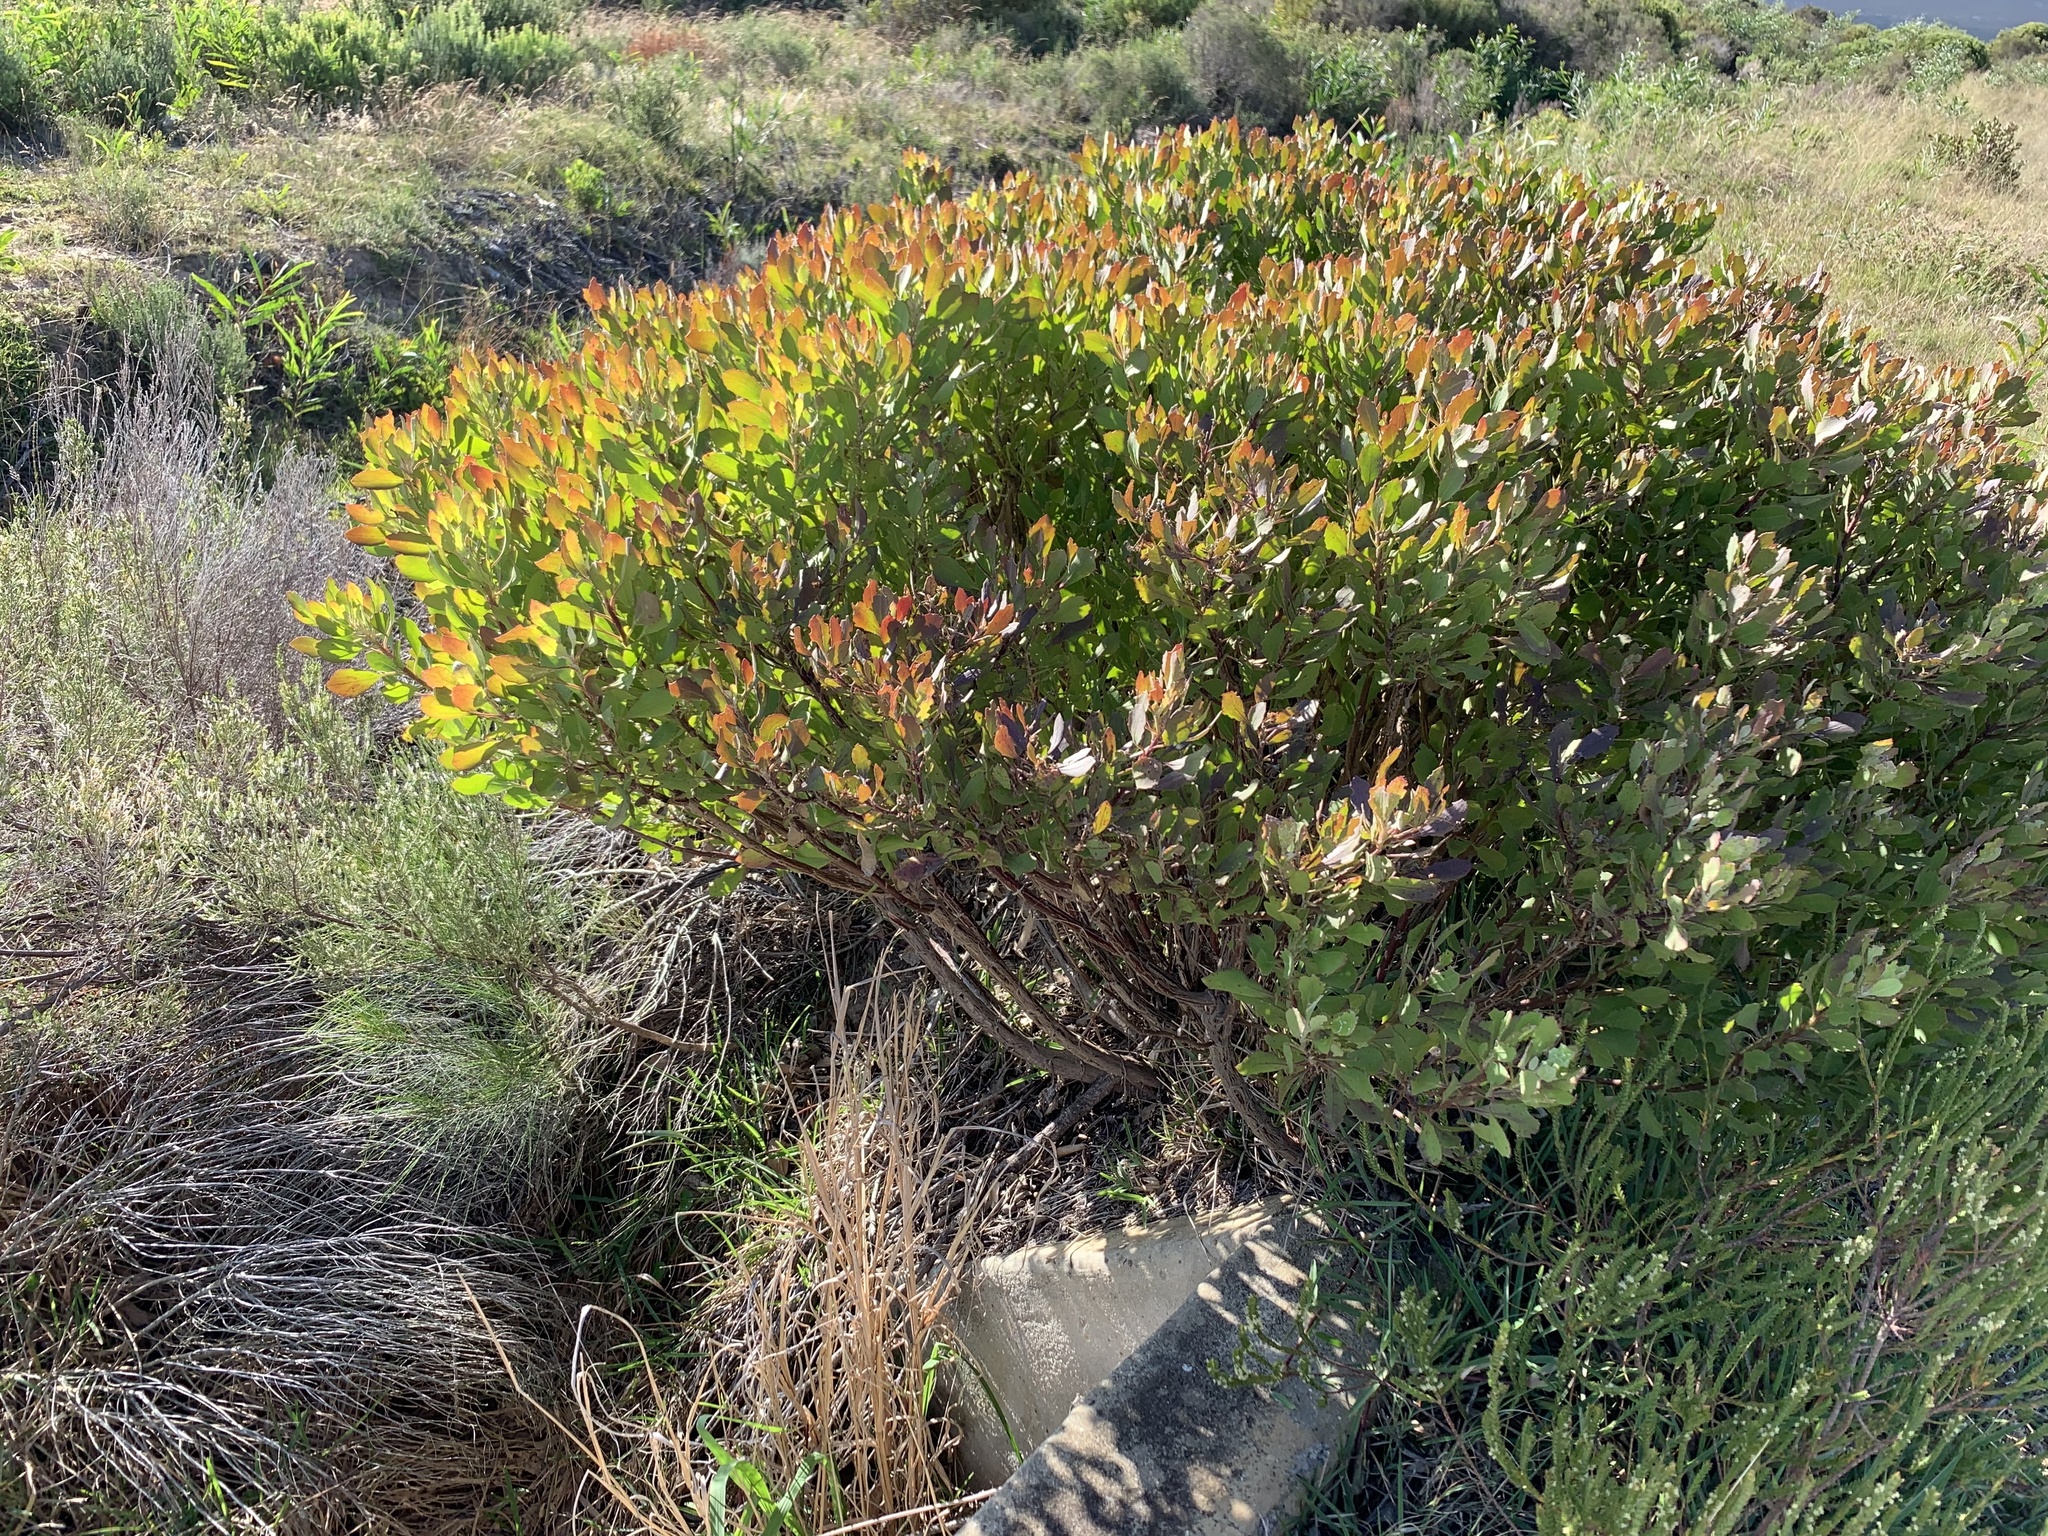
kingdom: Plantae
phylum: Tracheophyta
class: Magnoliopsida
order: Asterales
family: Asteraceae
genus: Osteospermum
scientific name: Osteospermum moniliferum
